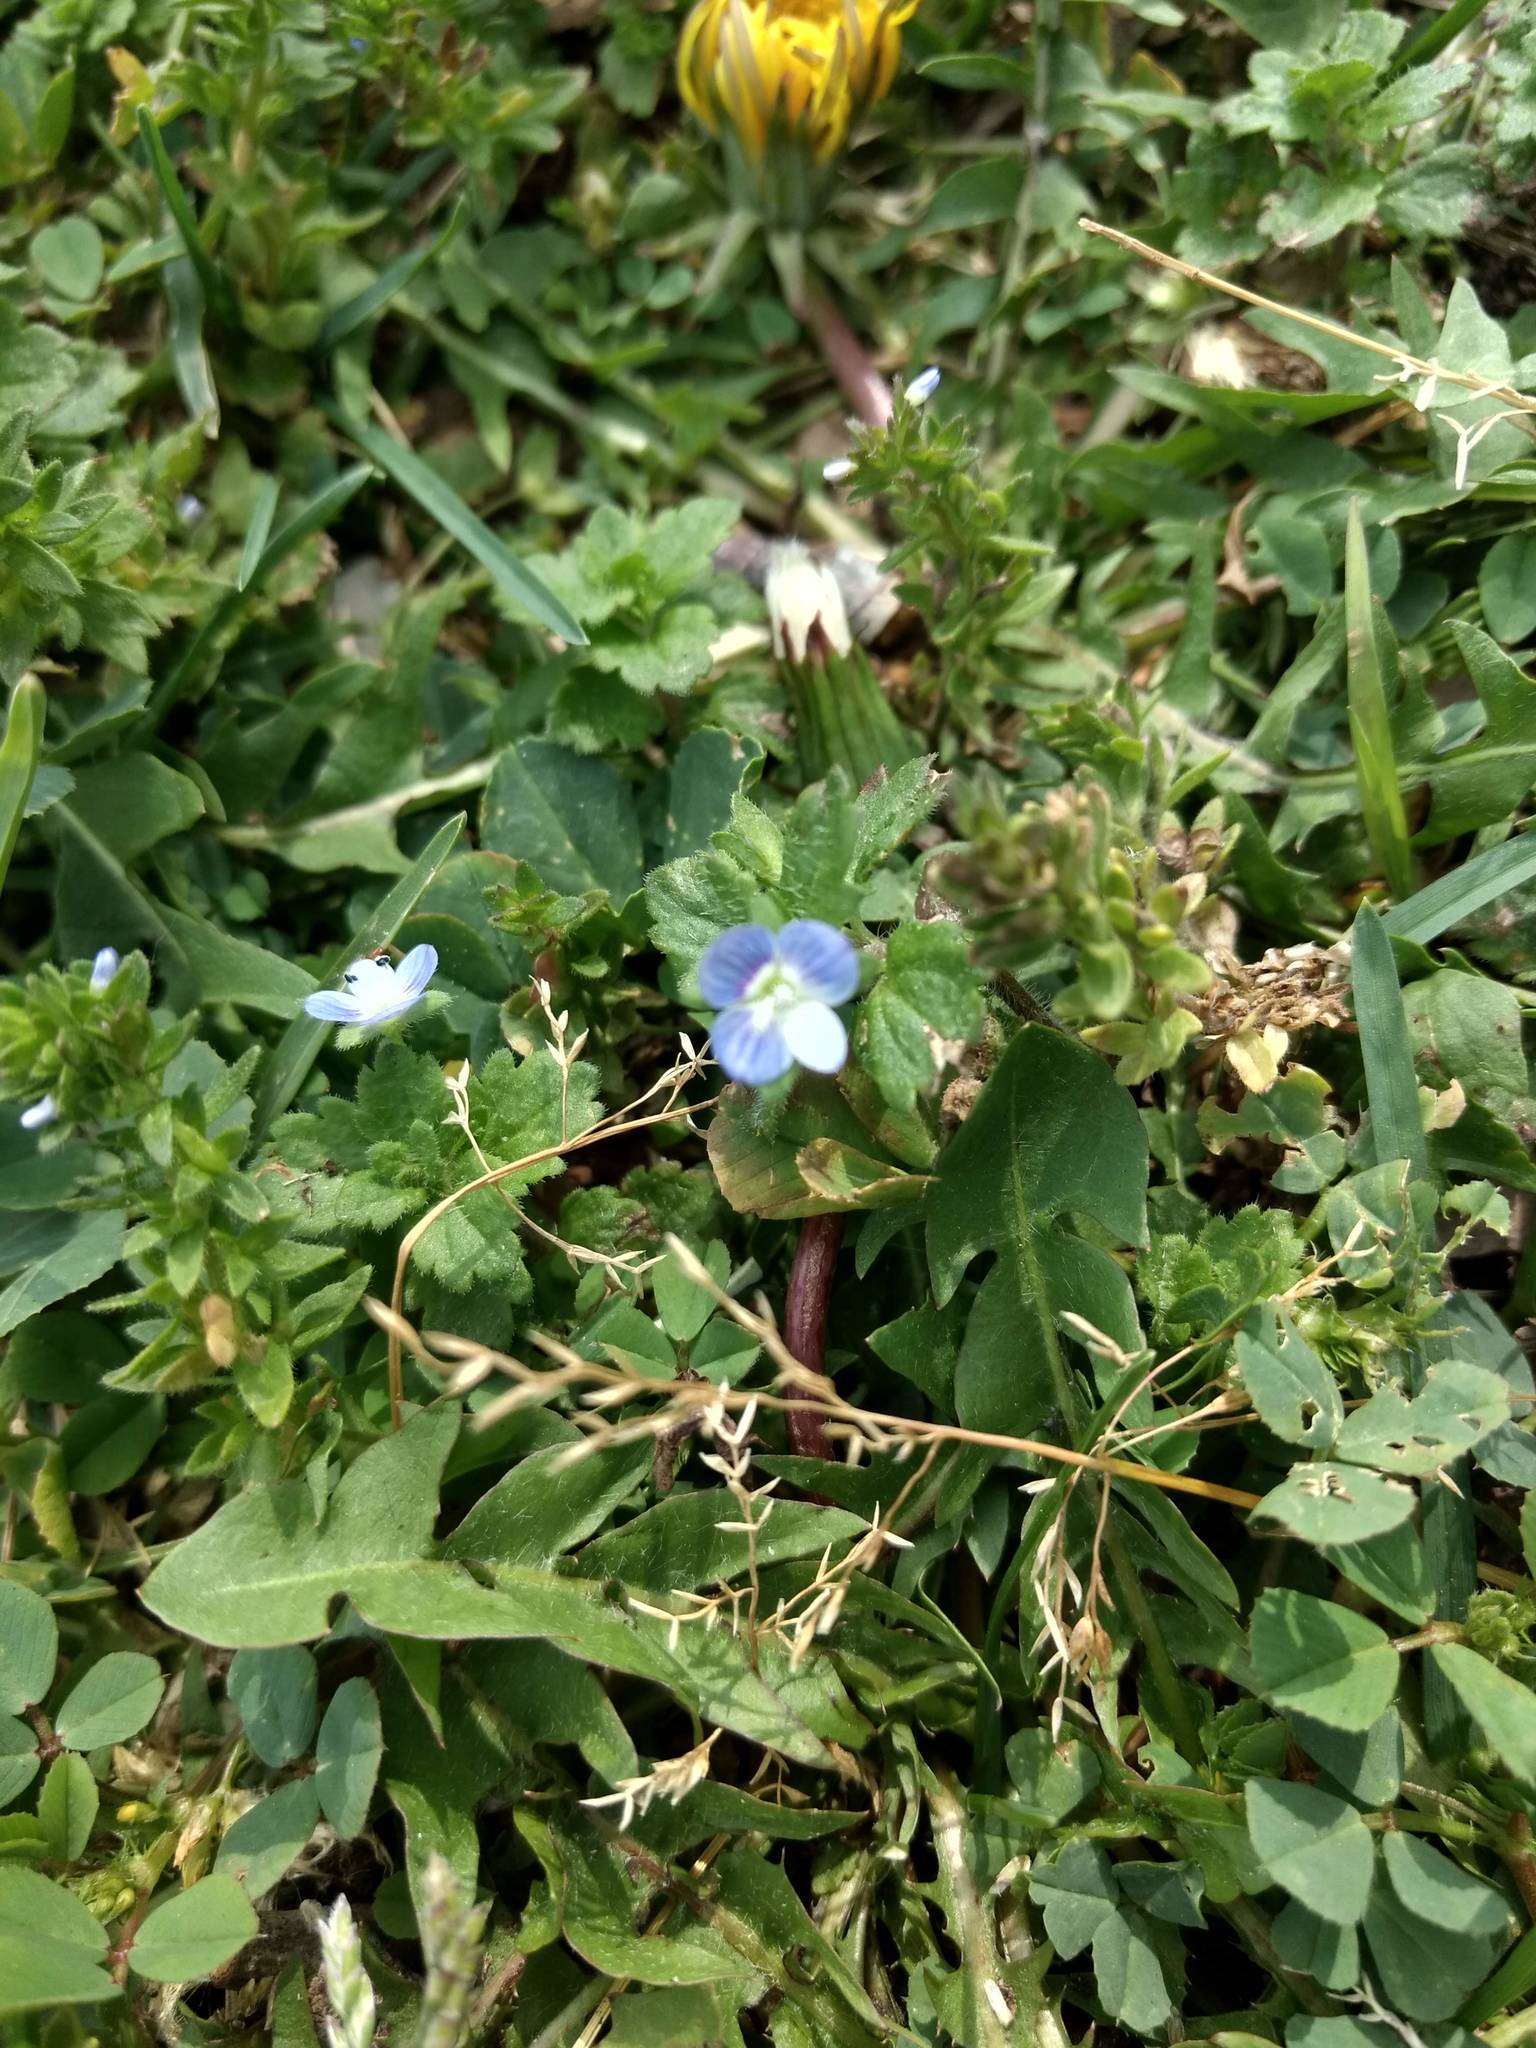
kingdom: Plantae
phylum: Tracheophyta
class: Magnoliopsida
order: Lamiales
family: Plantaginaceae
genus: Veronica
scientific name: Veronica persica
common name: Common field-speedwell
